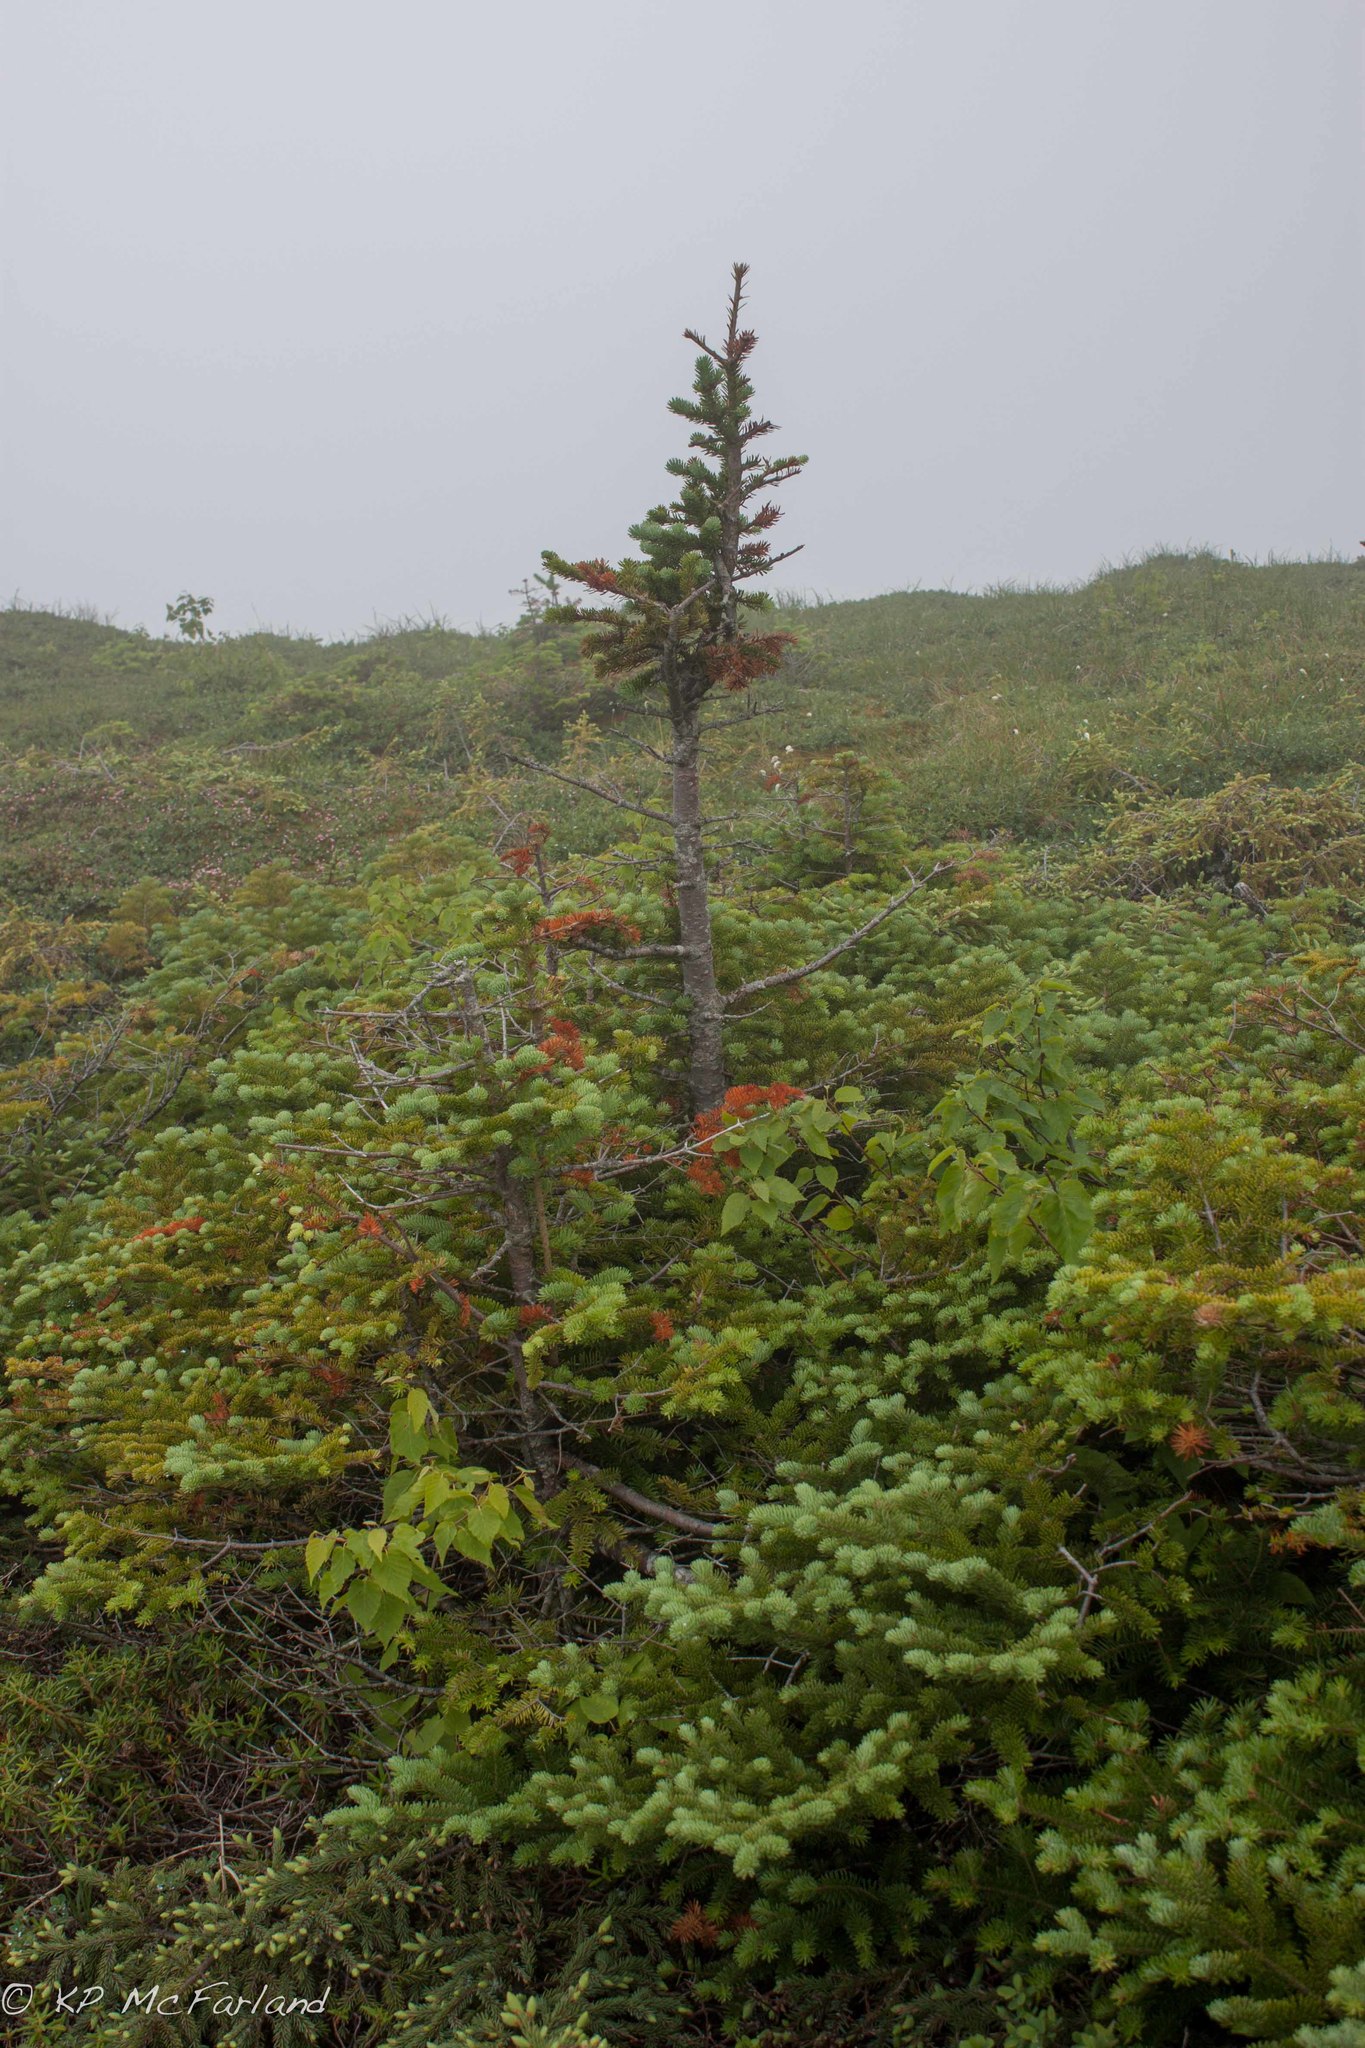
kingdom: Plantae
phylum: Tracheophyta
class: Pinopsida
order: Pinales
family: Pinaceae
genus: Abies
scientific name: Abies balsamea
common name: Balsam fir
